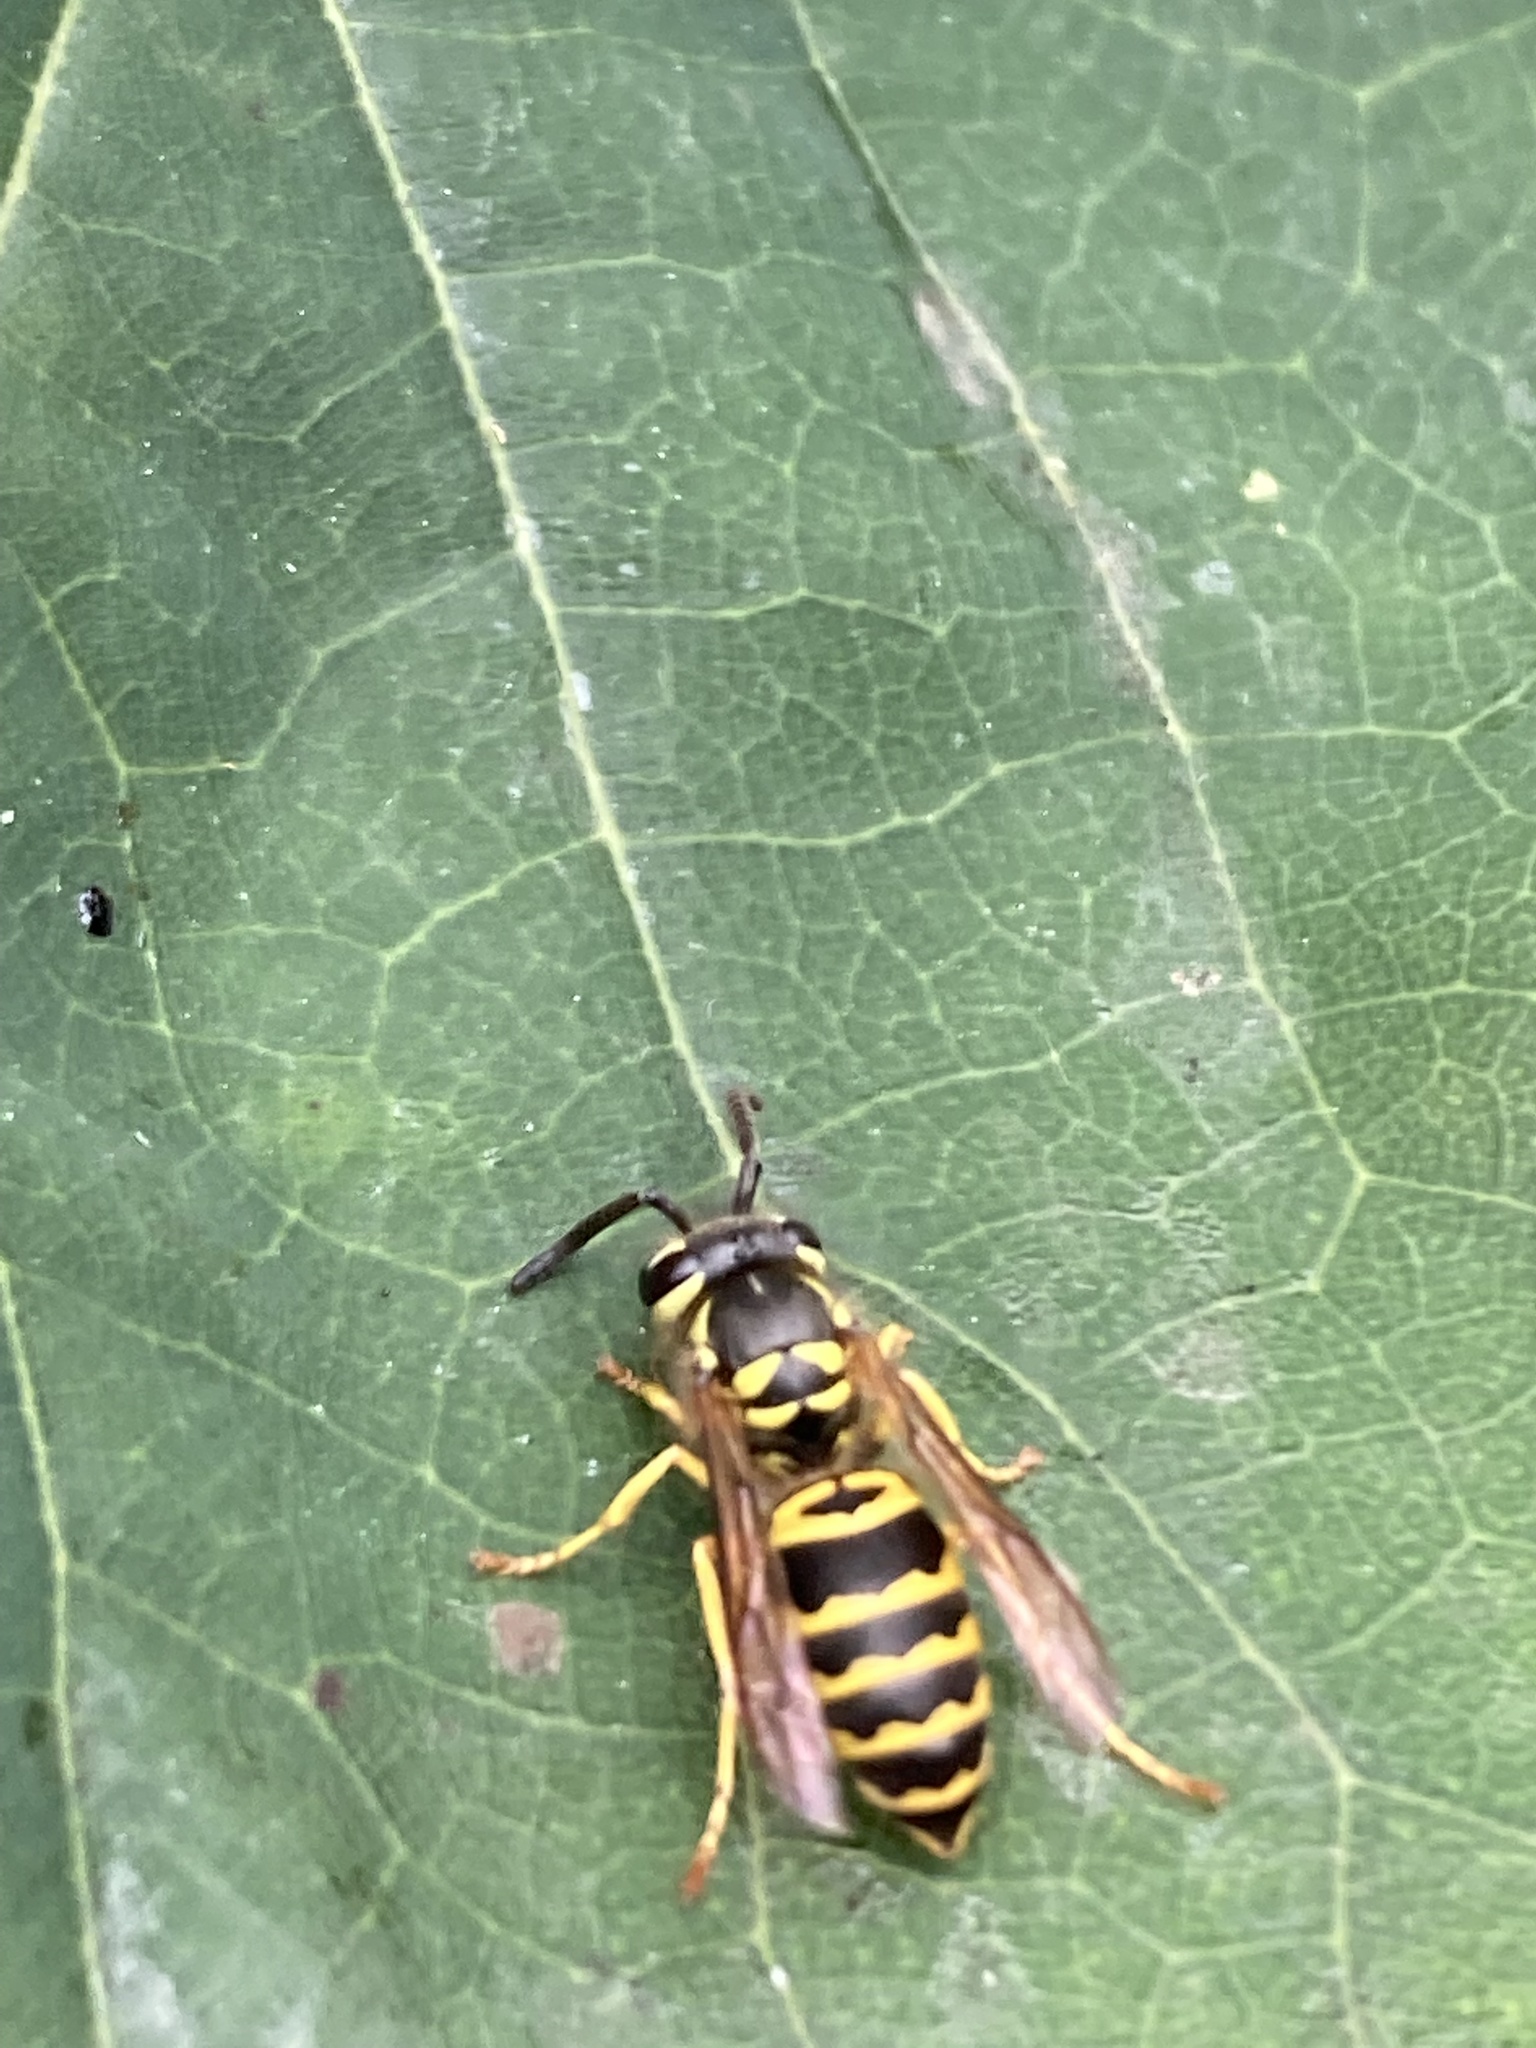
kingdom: Animalia
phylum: Arthropoda
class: Insecta
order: Hymenoptera
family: Vespidae
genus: Vespula
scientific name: Vespula maculifrons
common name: Eastern yellowjacket
